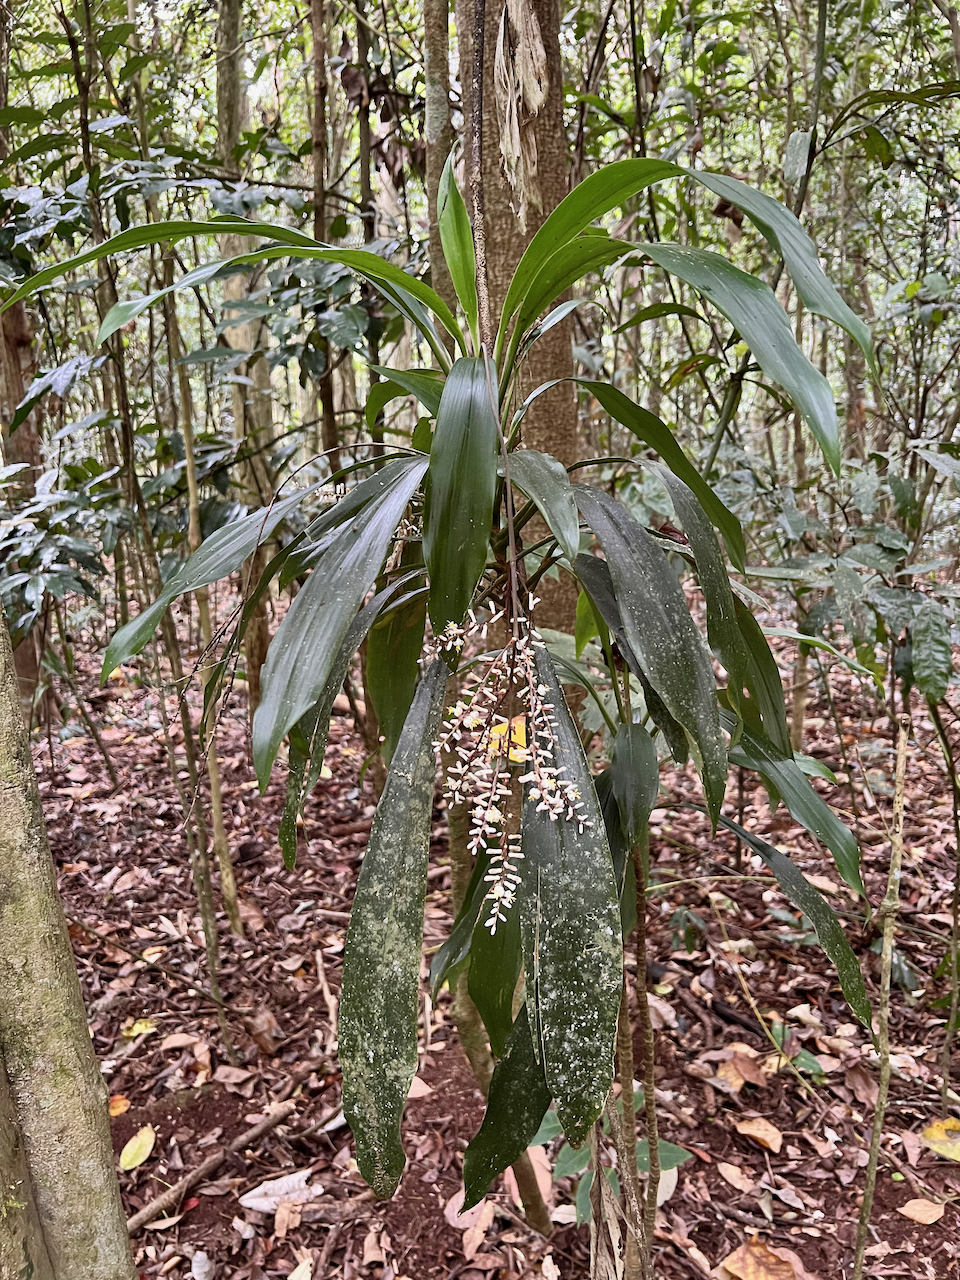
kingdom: Plantae
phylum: Tracheophyta
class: Liliopsida
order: Asparagales
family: Asparagaceae
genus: Cordyline
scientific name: Cordyline cannifolia
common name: Palm-lily
